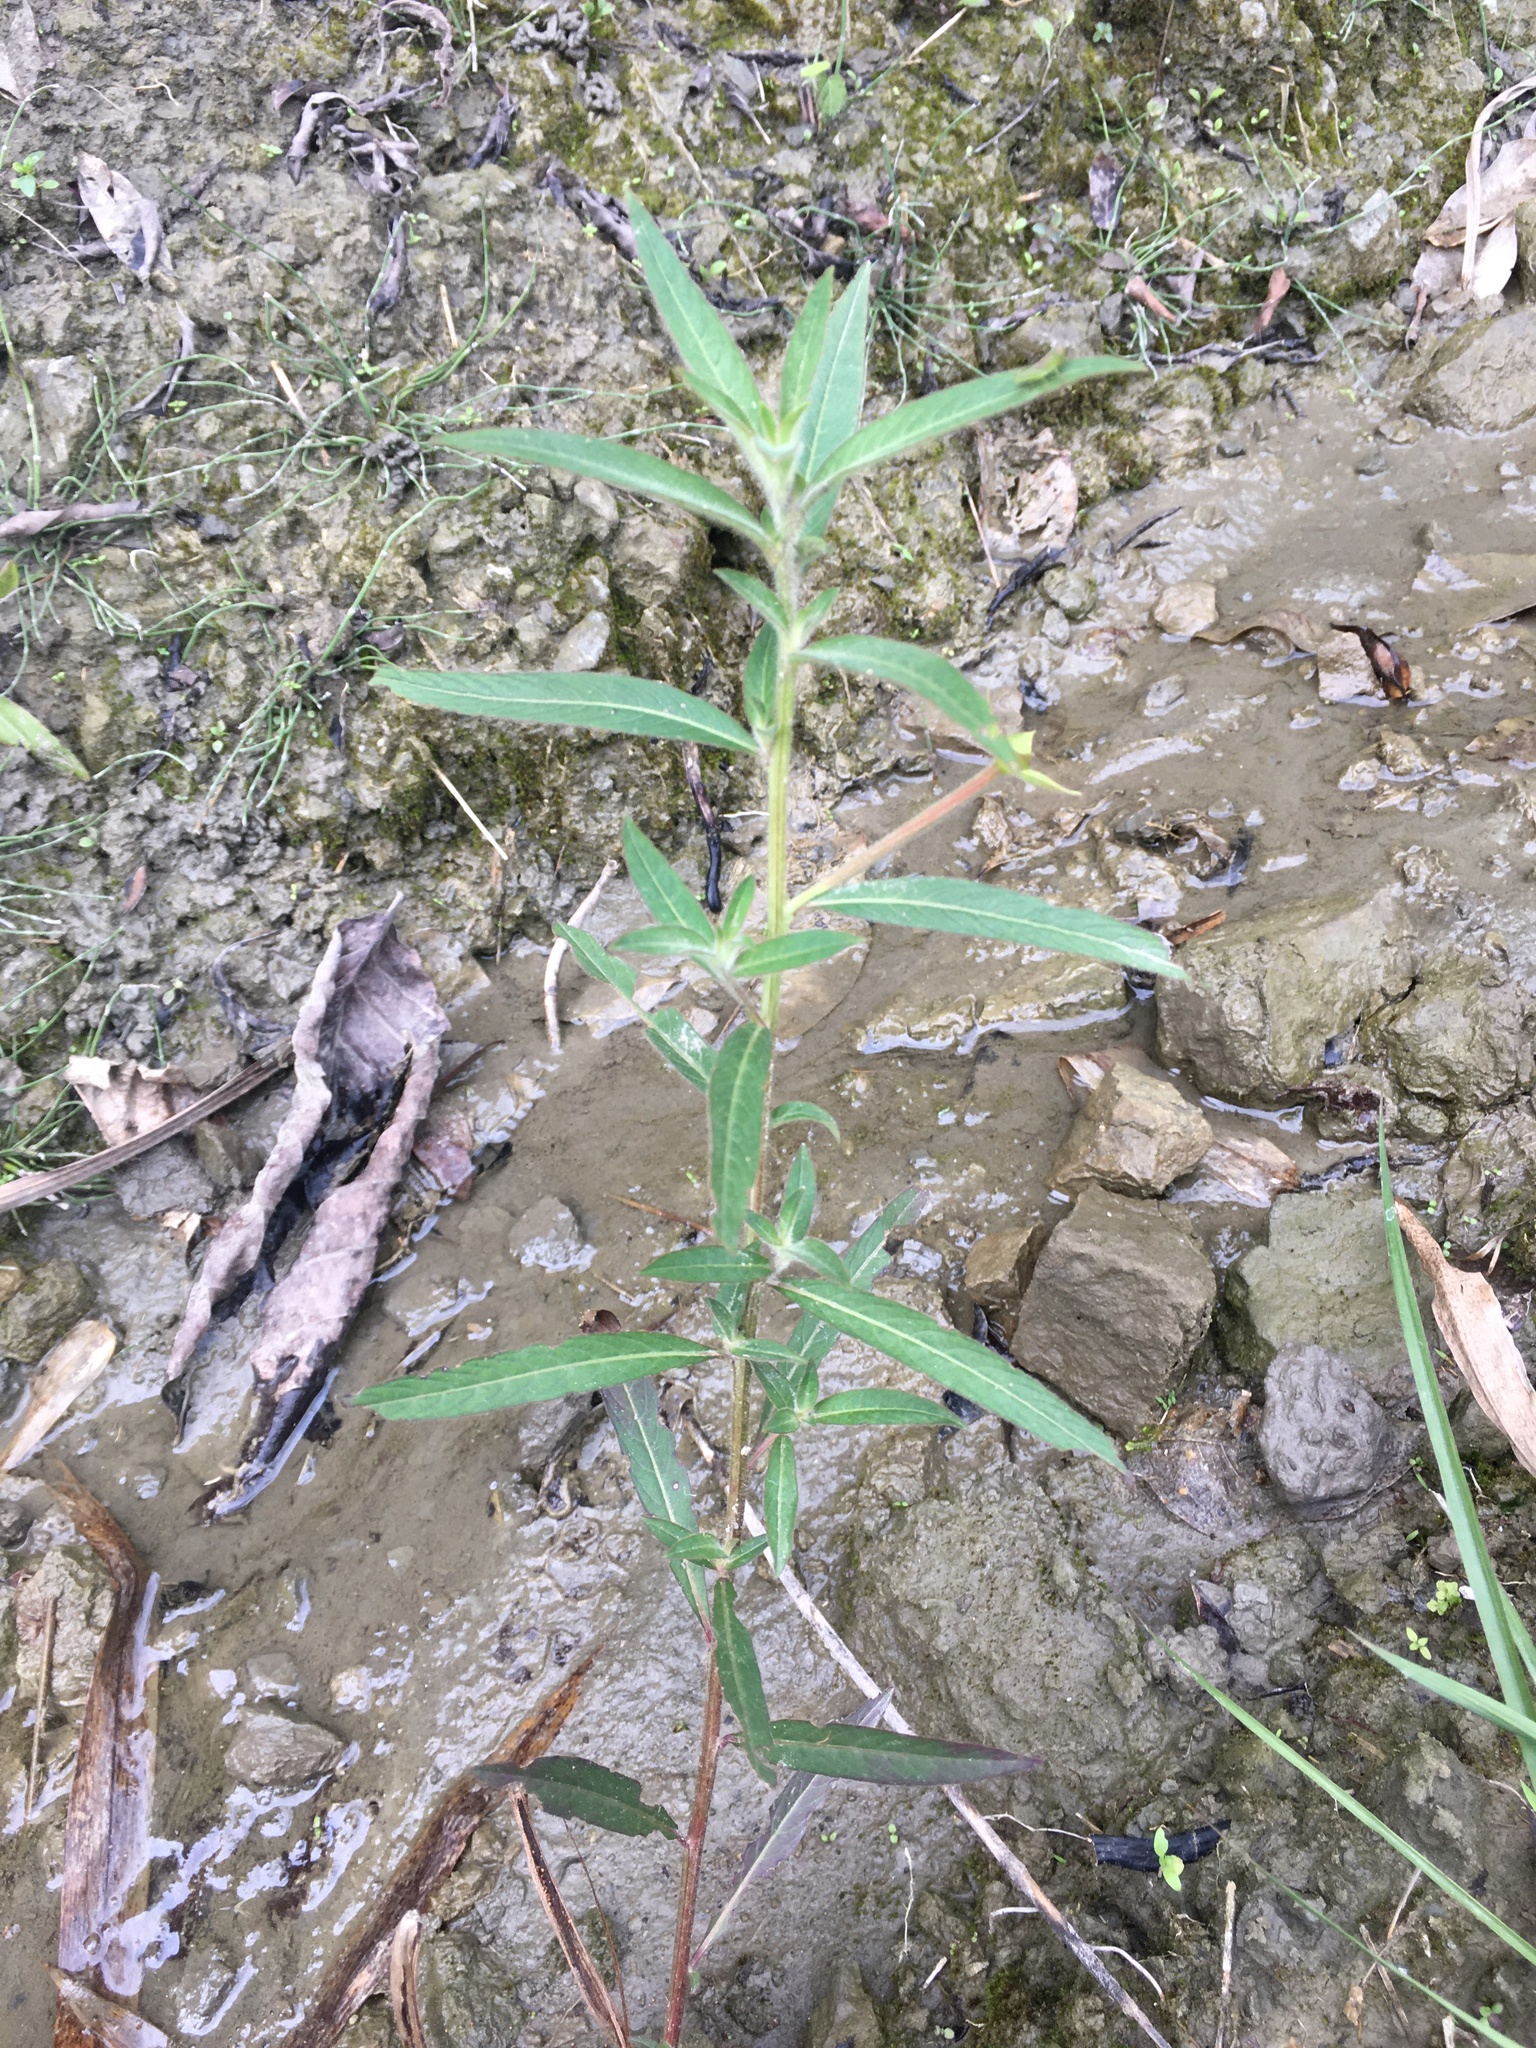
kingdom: Plantae
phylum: Tracheophyta
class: Magnoliopsida
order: Myrtales
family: Onagraceae
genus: Ludwigia
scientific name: Ludwigia octovalvis
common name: Water-primrose
